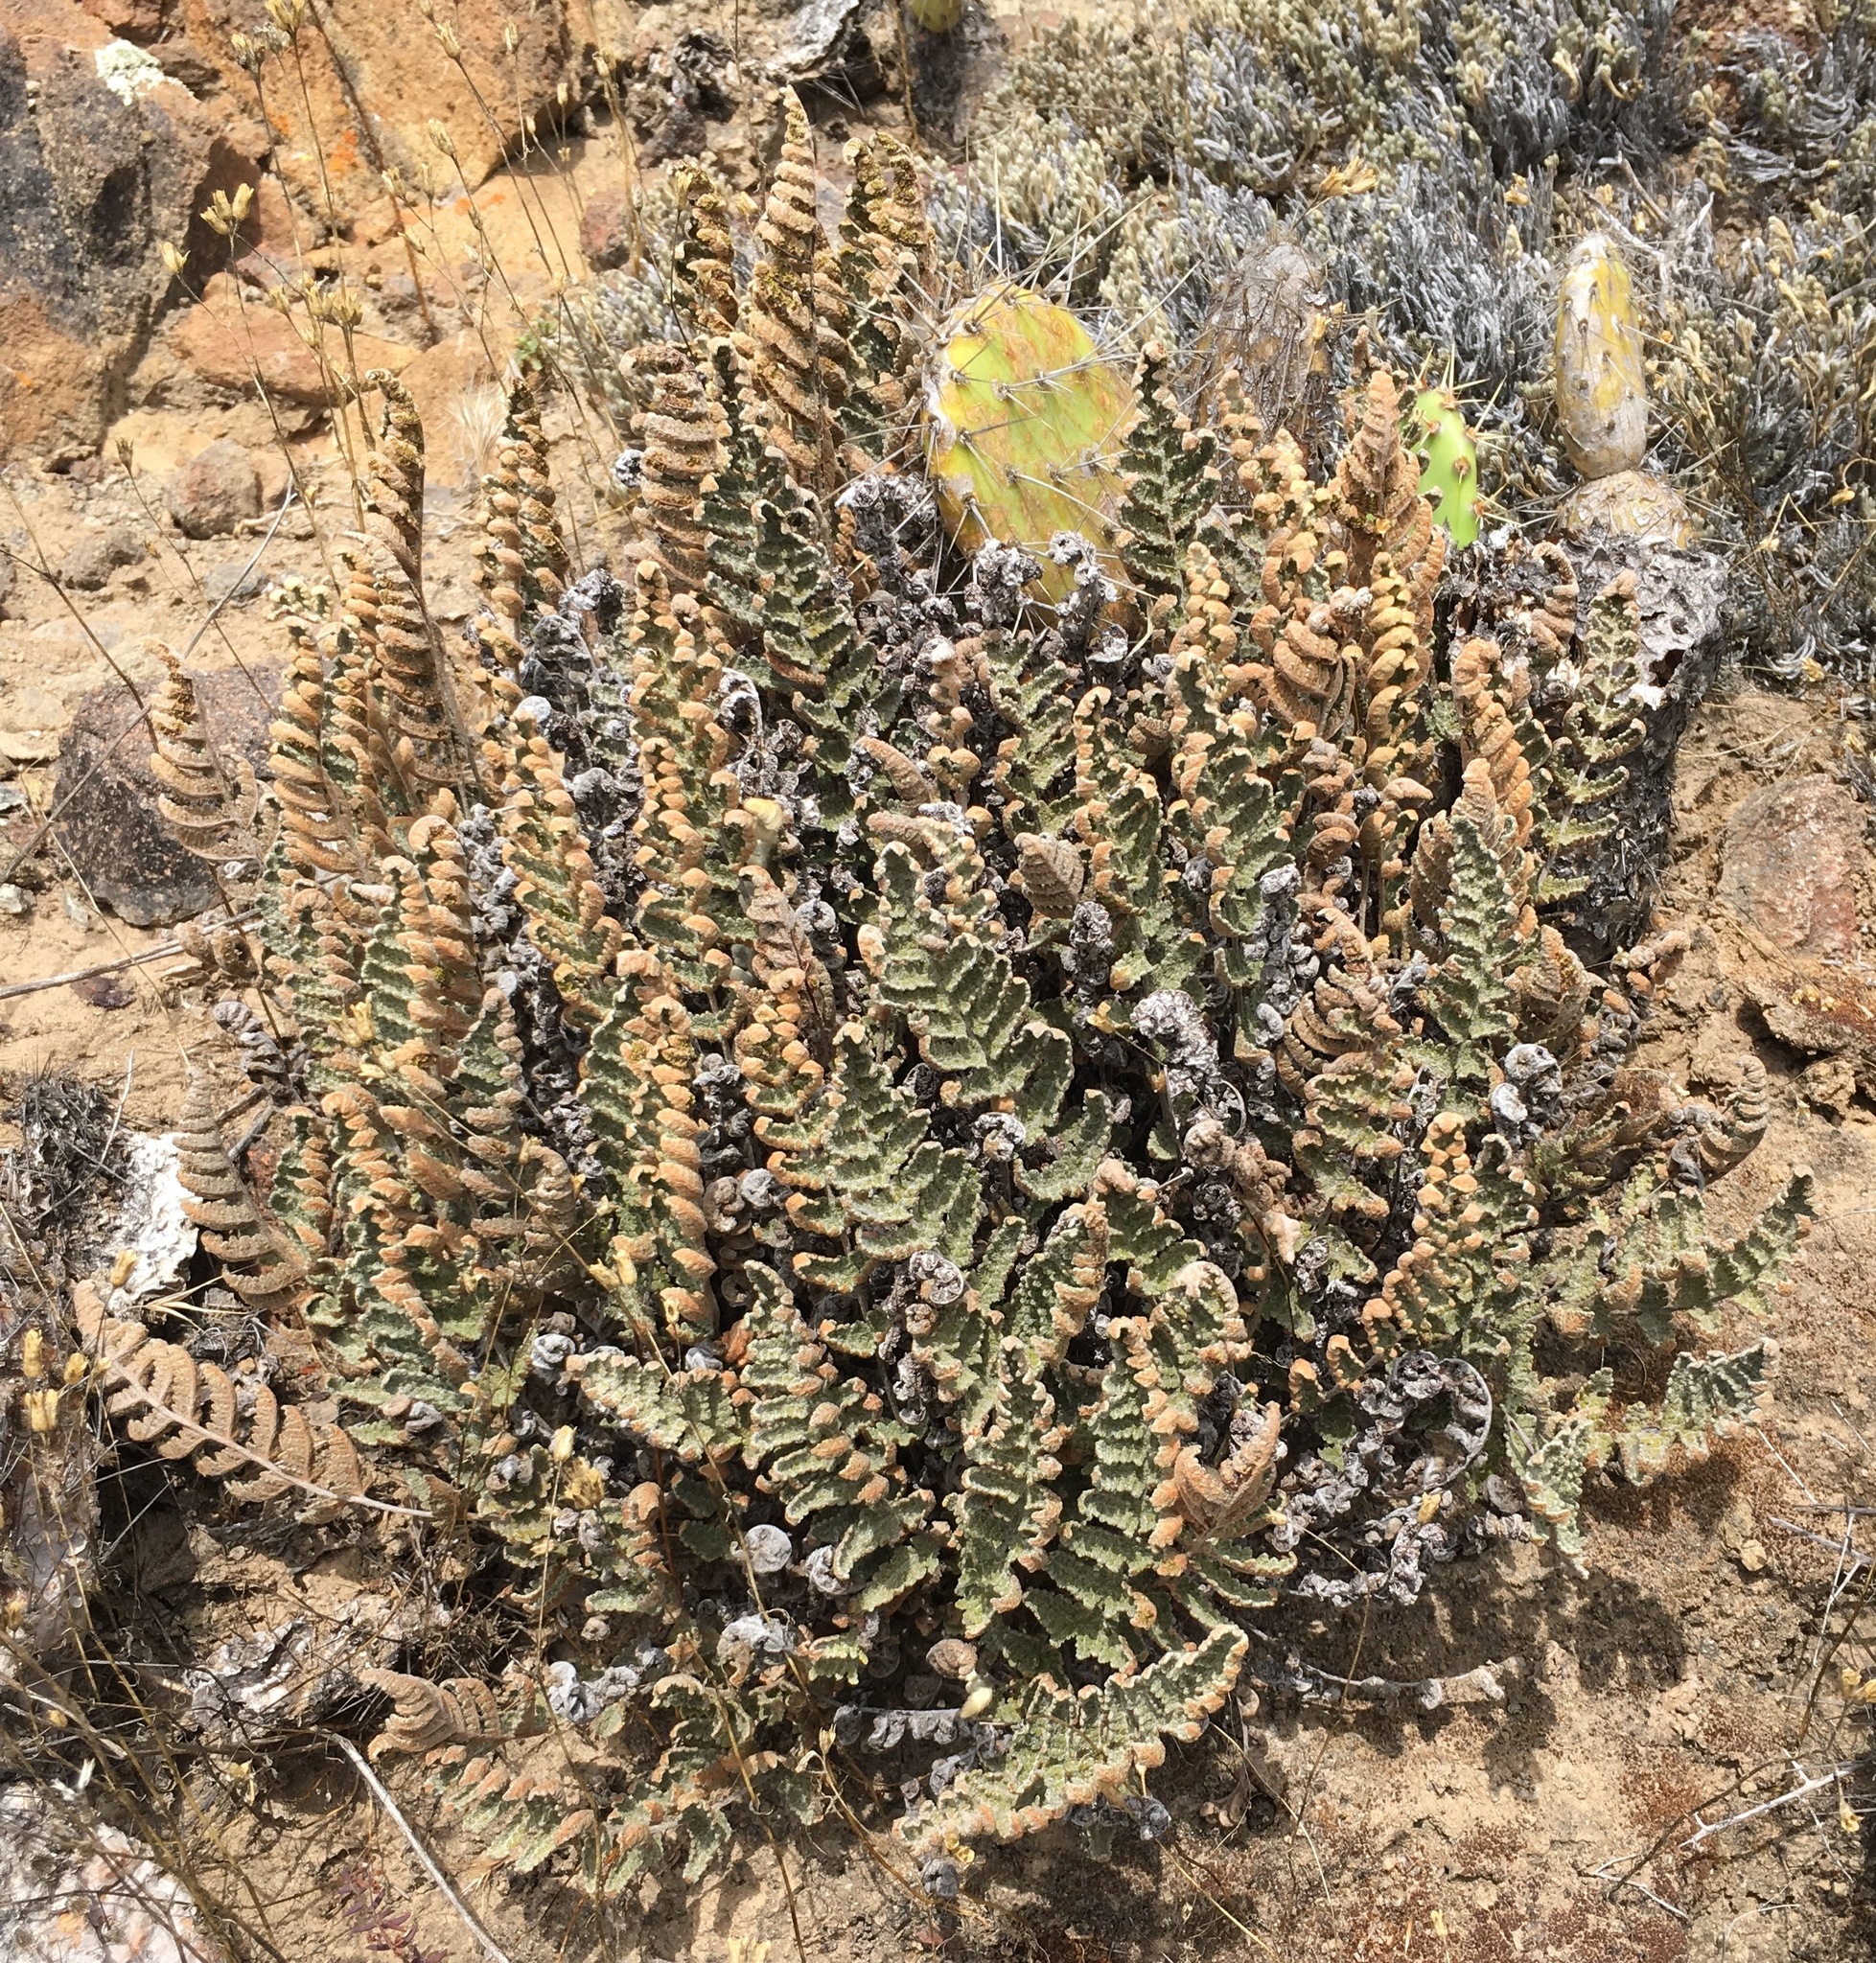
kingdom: Plantae
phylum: Tracheophyta
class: Polypodiopsida
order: Polypodiales
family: Pteridaceae
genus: Myriopteris
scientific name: Myriopteris newberryi
